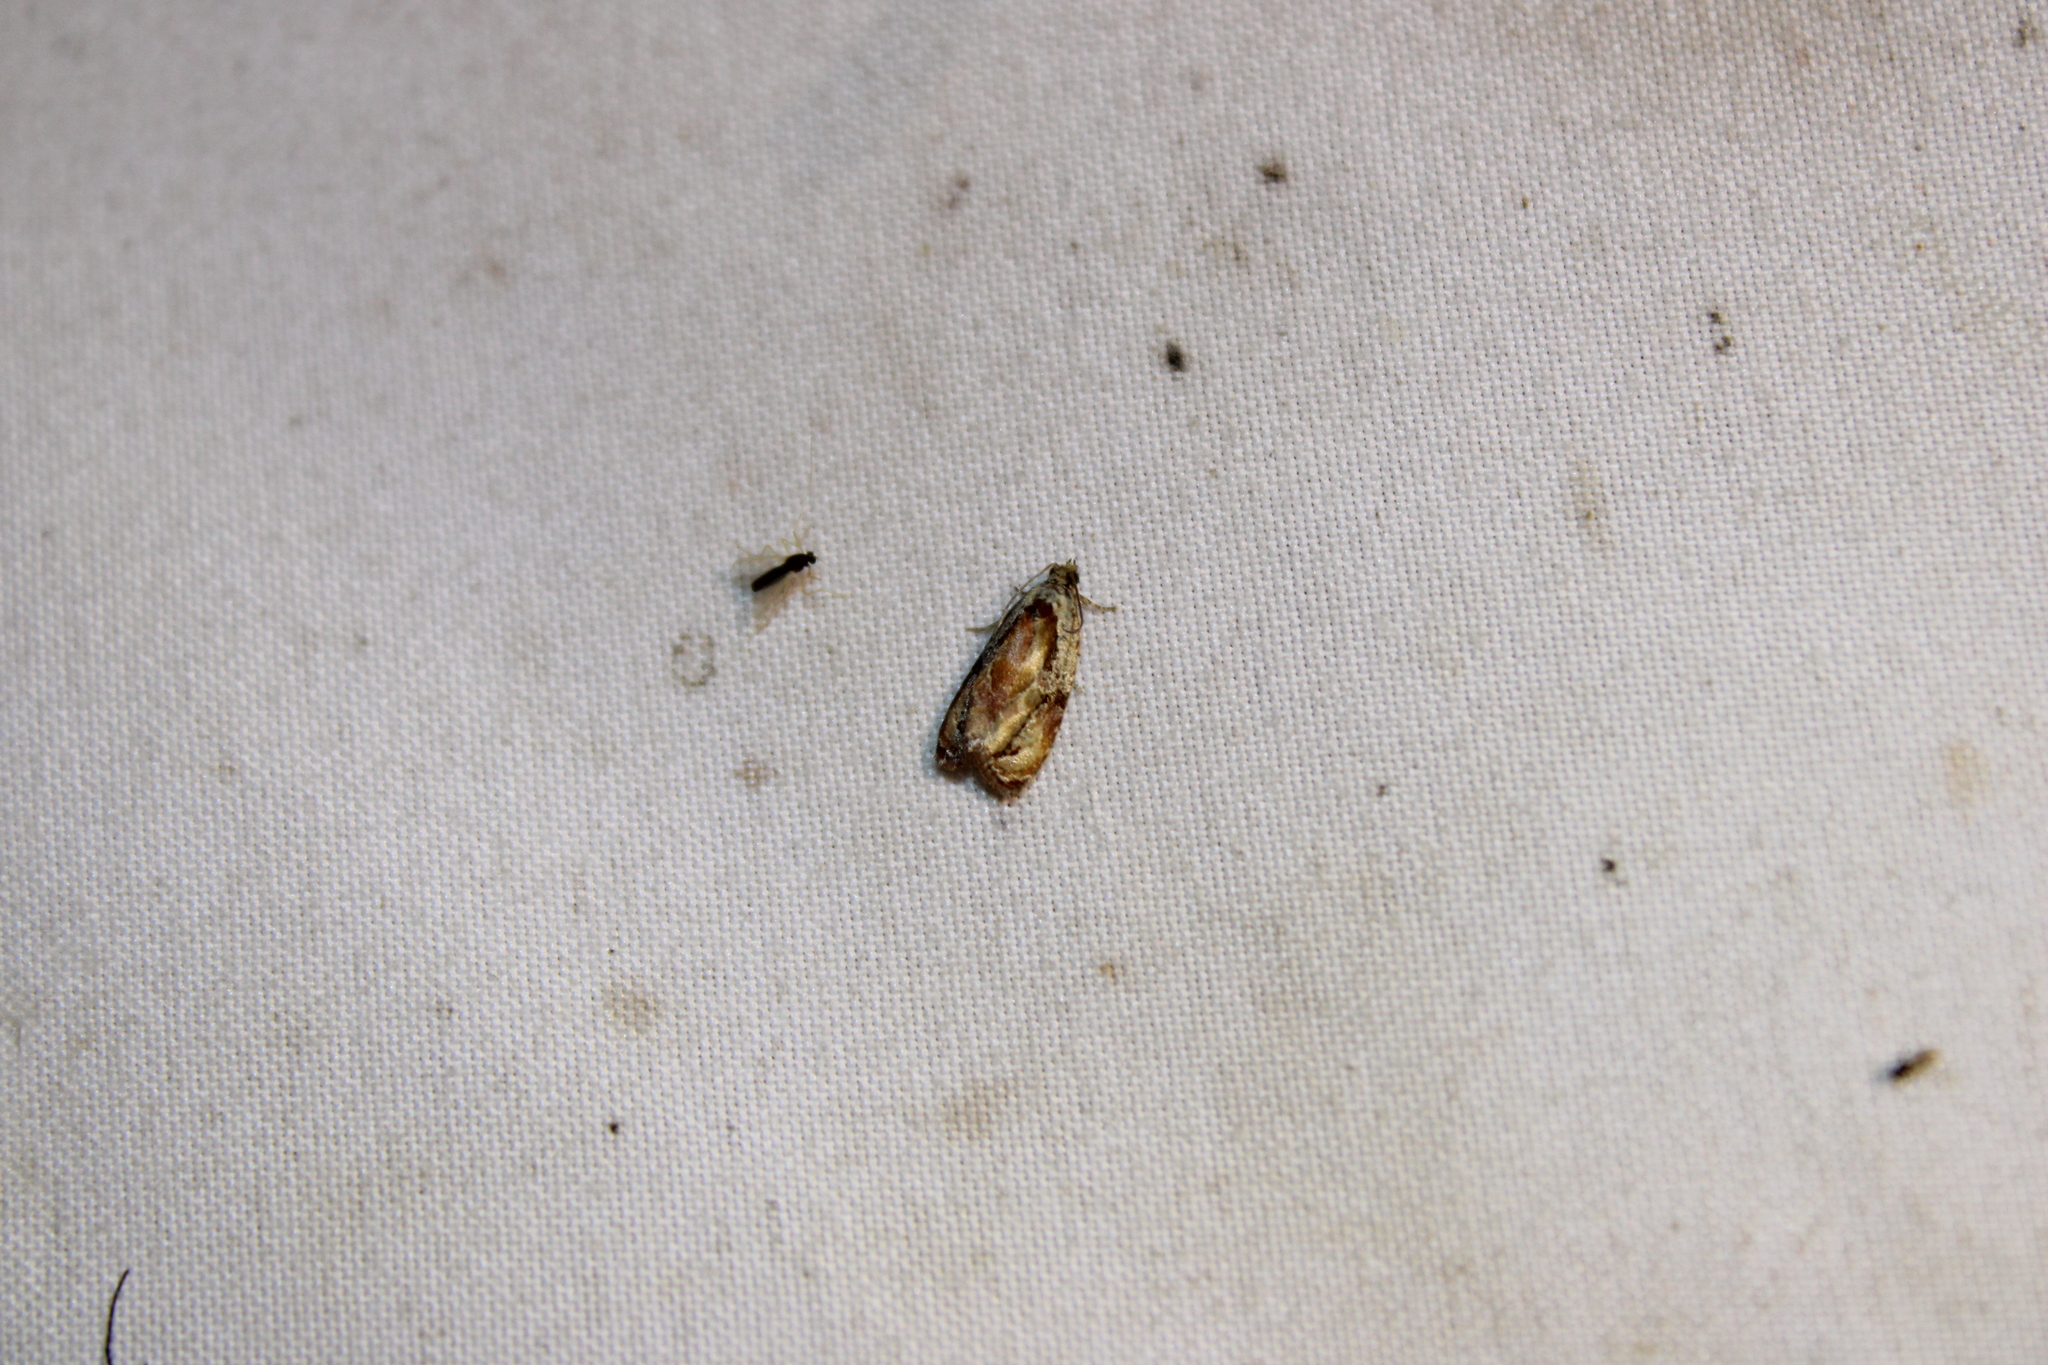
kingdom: Animalia
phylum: Arthropoda
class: Insecta
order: Lepidoptera
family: Tortricidae
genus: Zomaria
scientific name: Zomaria interruptolineana
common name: Broken-lined zomaria moth
